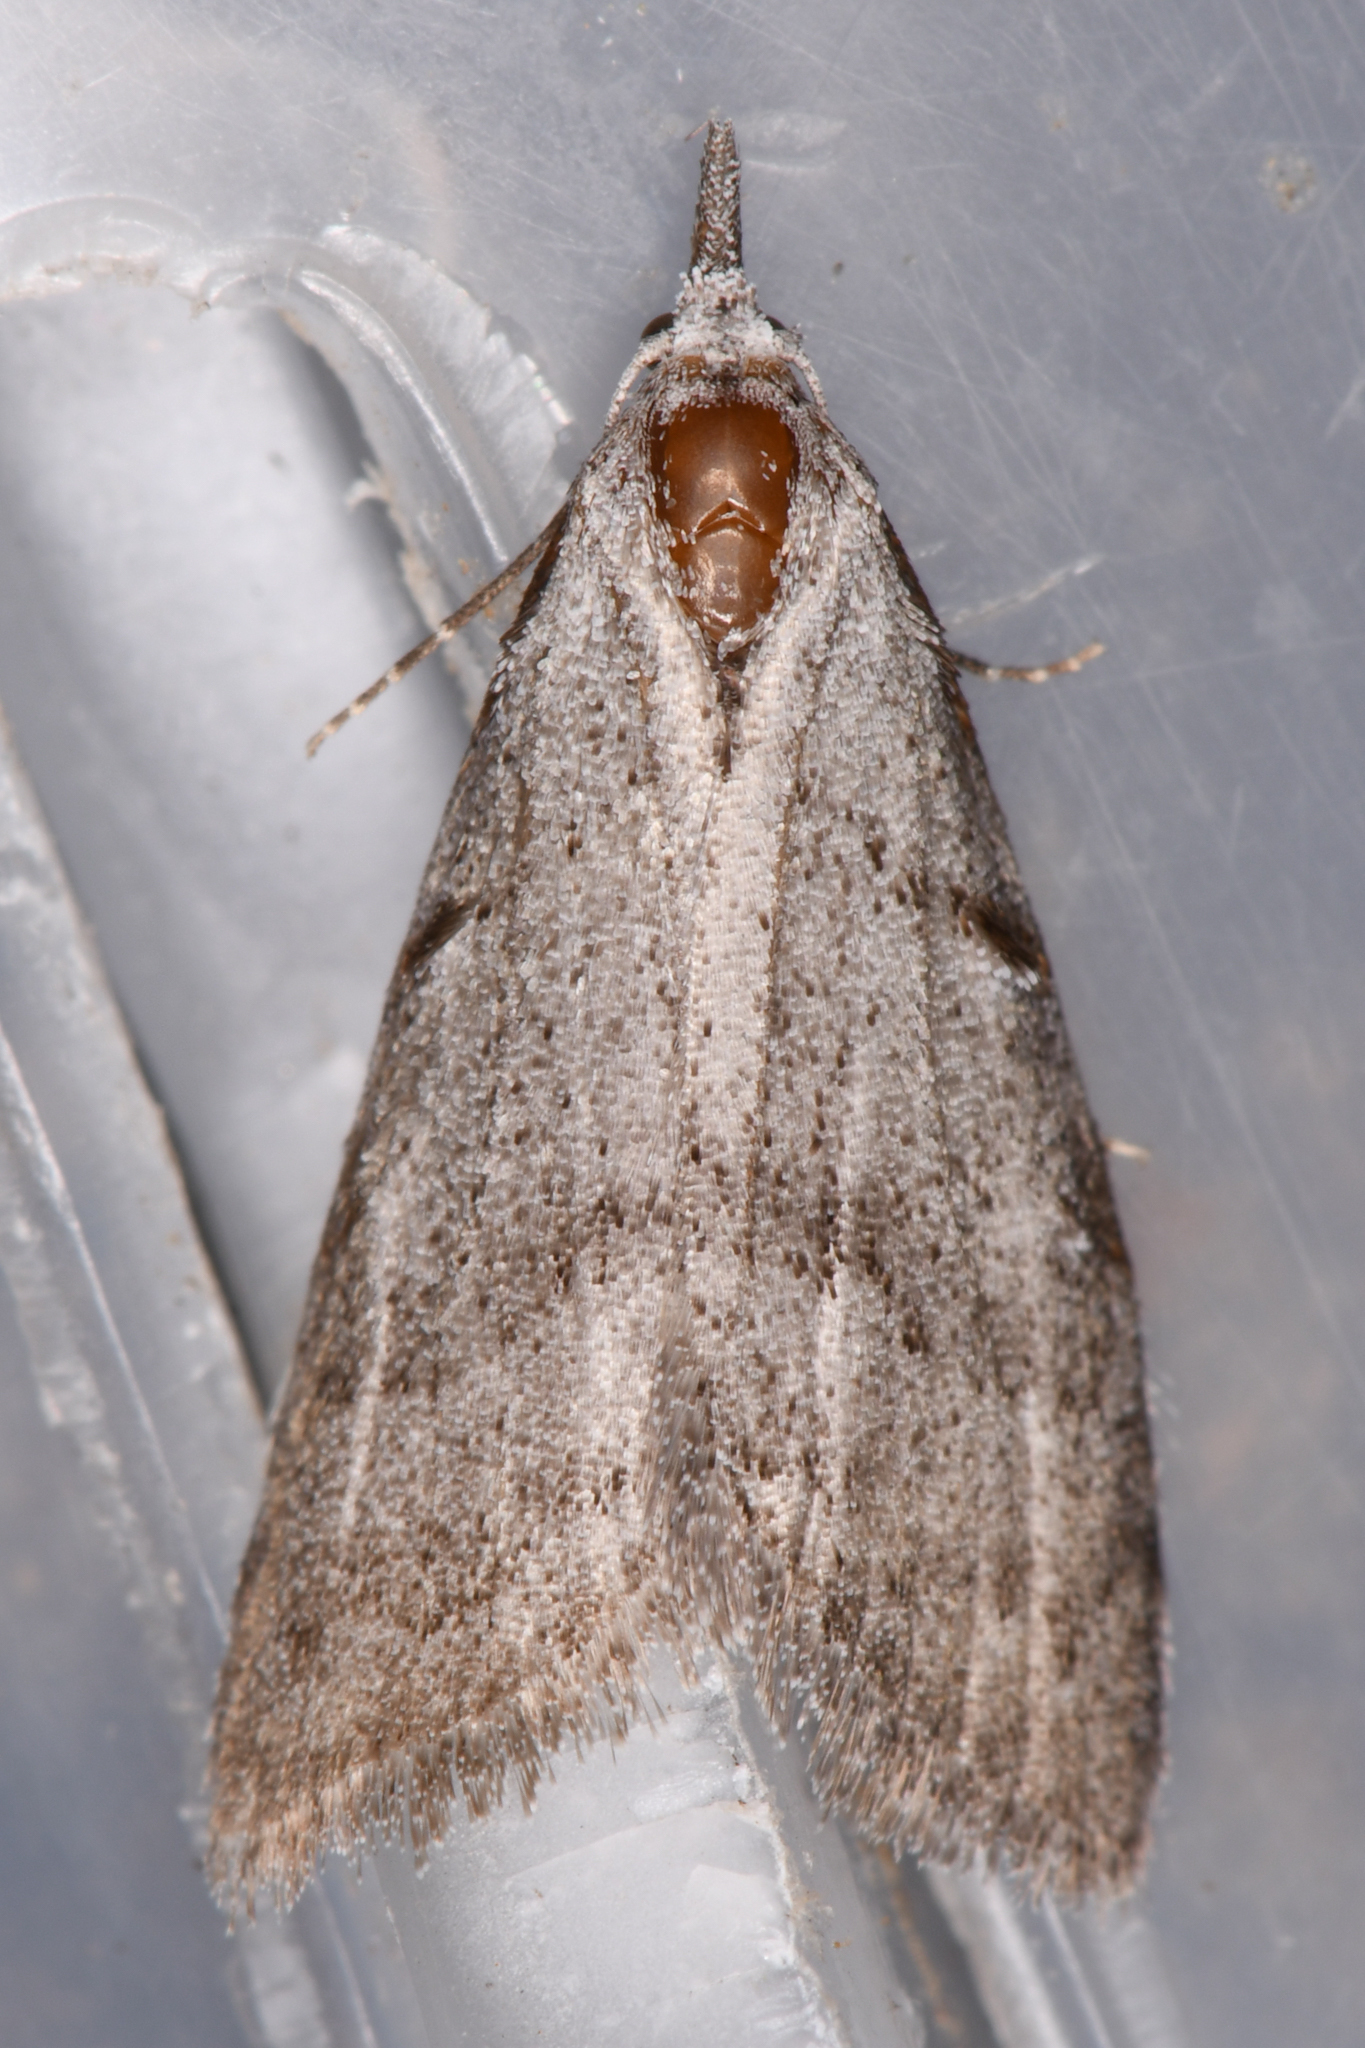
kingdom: Animalia
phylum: Arthropoda
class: Insecta
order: Lepidoptera
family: Nolidae
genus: Nola
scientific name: Nola minna
